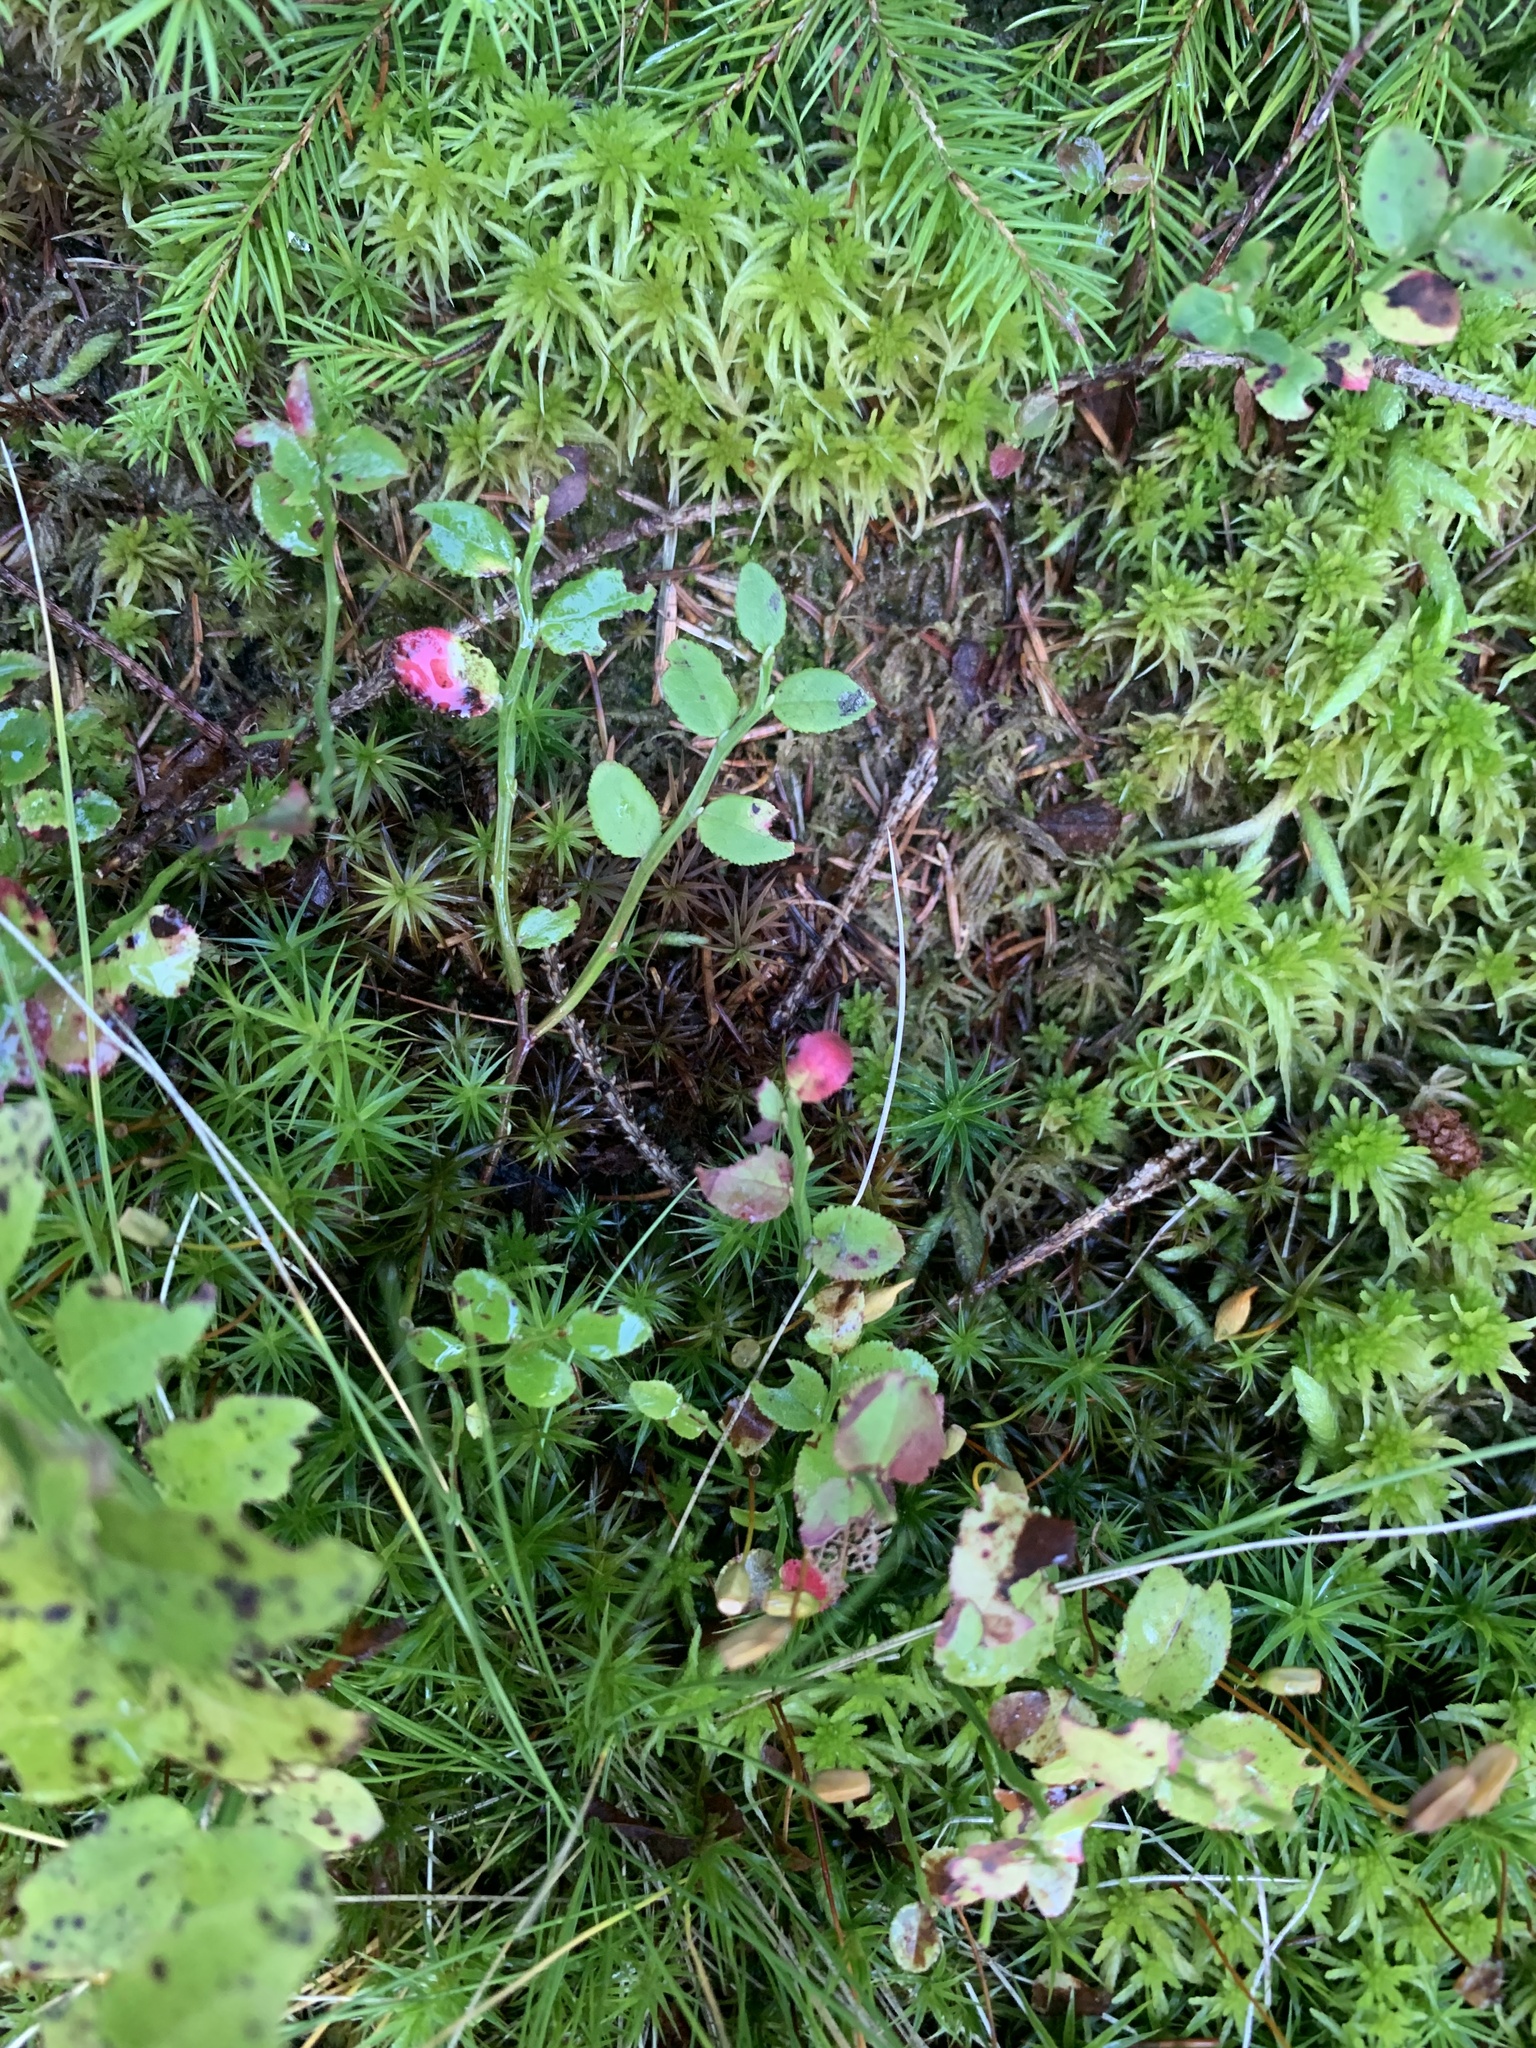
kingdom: Plantae
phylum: Tracheophyta
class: Magnoliopsida
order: Ericales
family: Ericaceae
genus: Vaccinium
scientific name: Vaccinium myrtillus
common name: Bilberry
